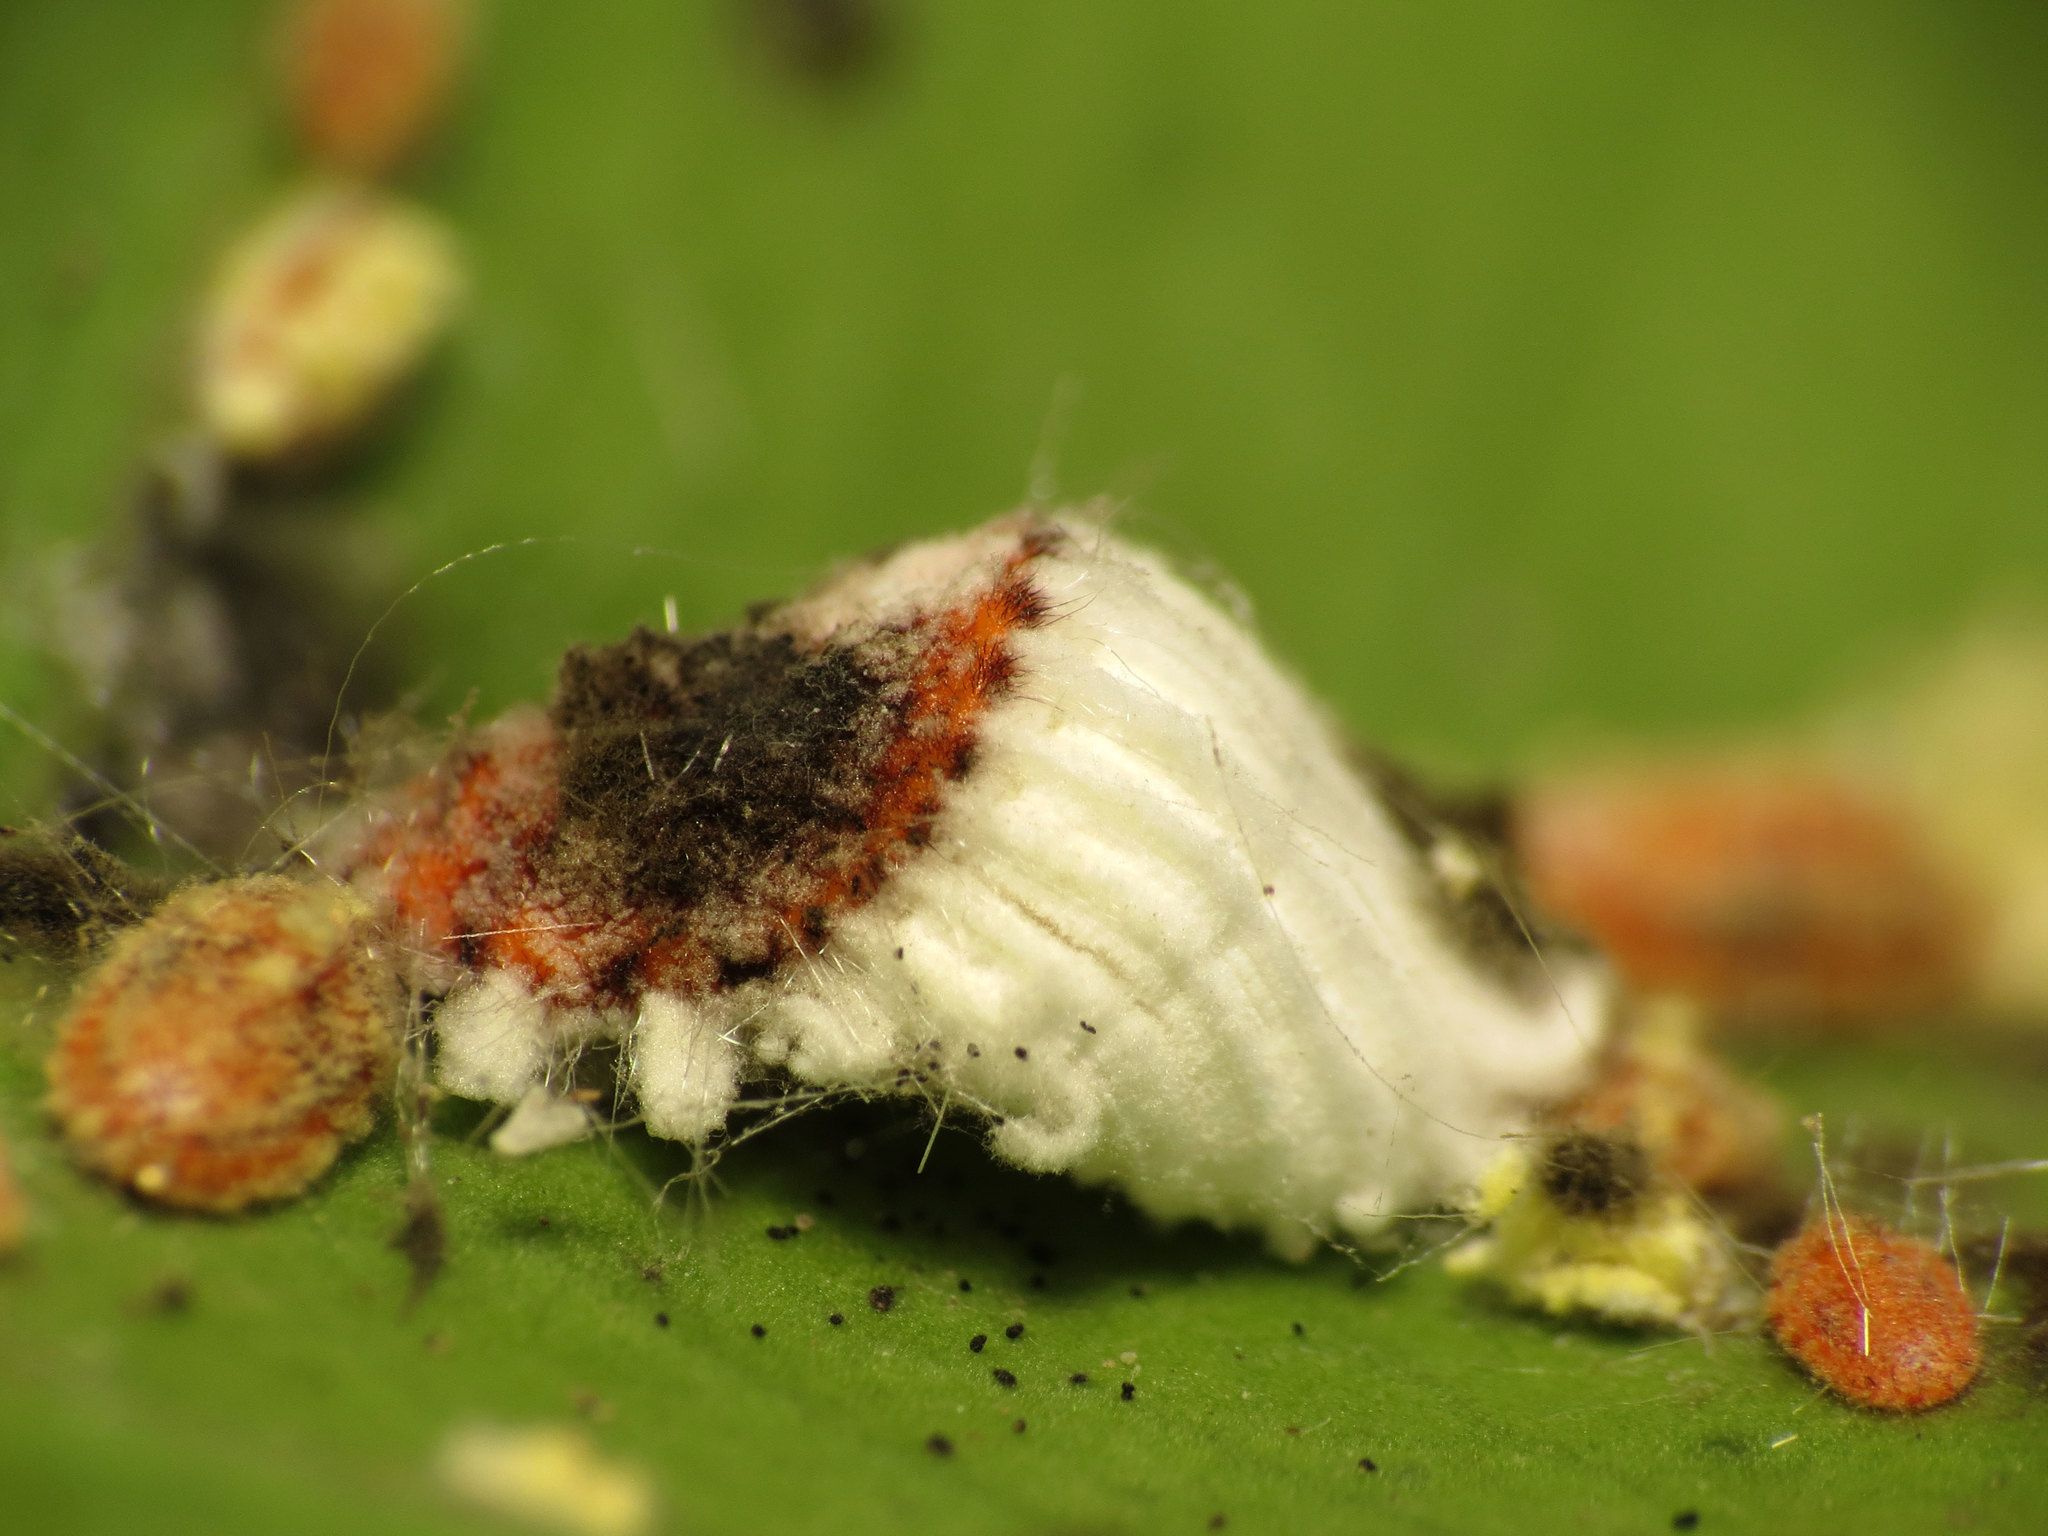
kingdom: Animalia
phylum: Arthropoda
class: Insecta
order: Hemiptera
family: Margarodidae
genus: Icerya
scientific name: Icerya purchasi
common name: Cottony cushion scale
